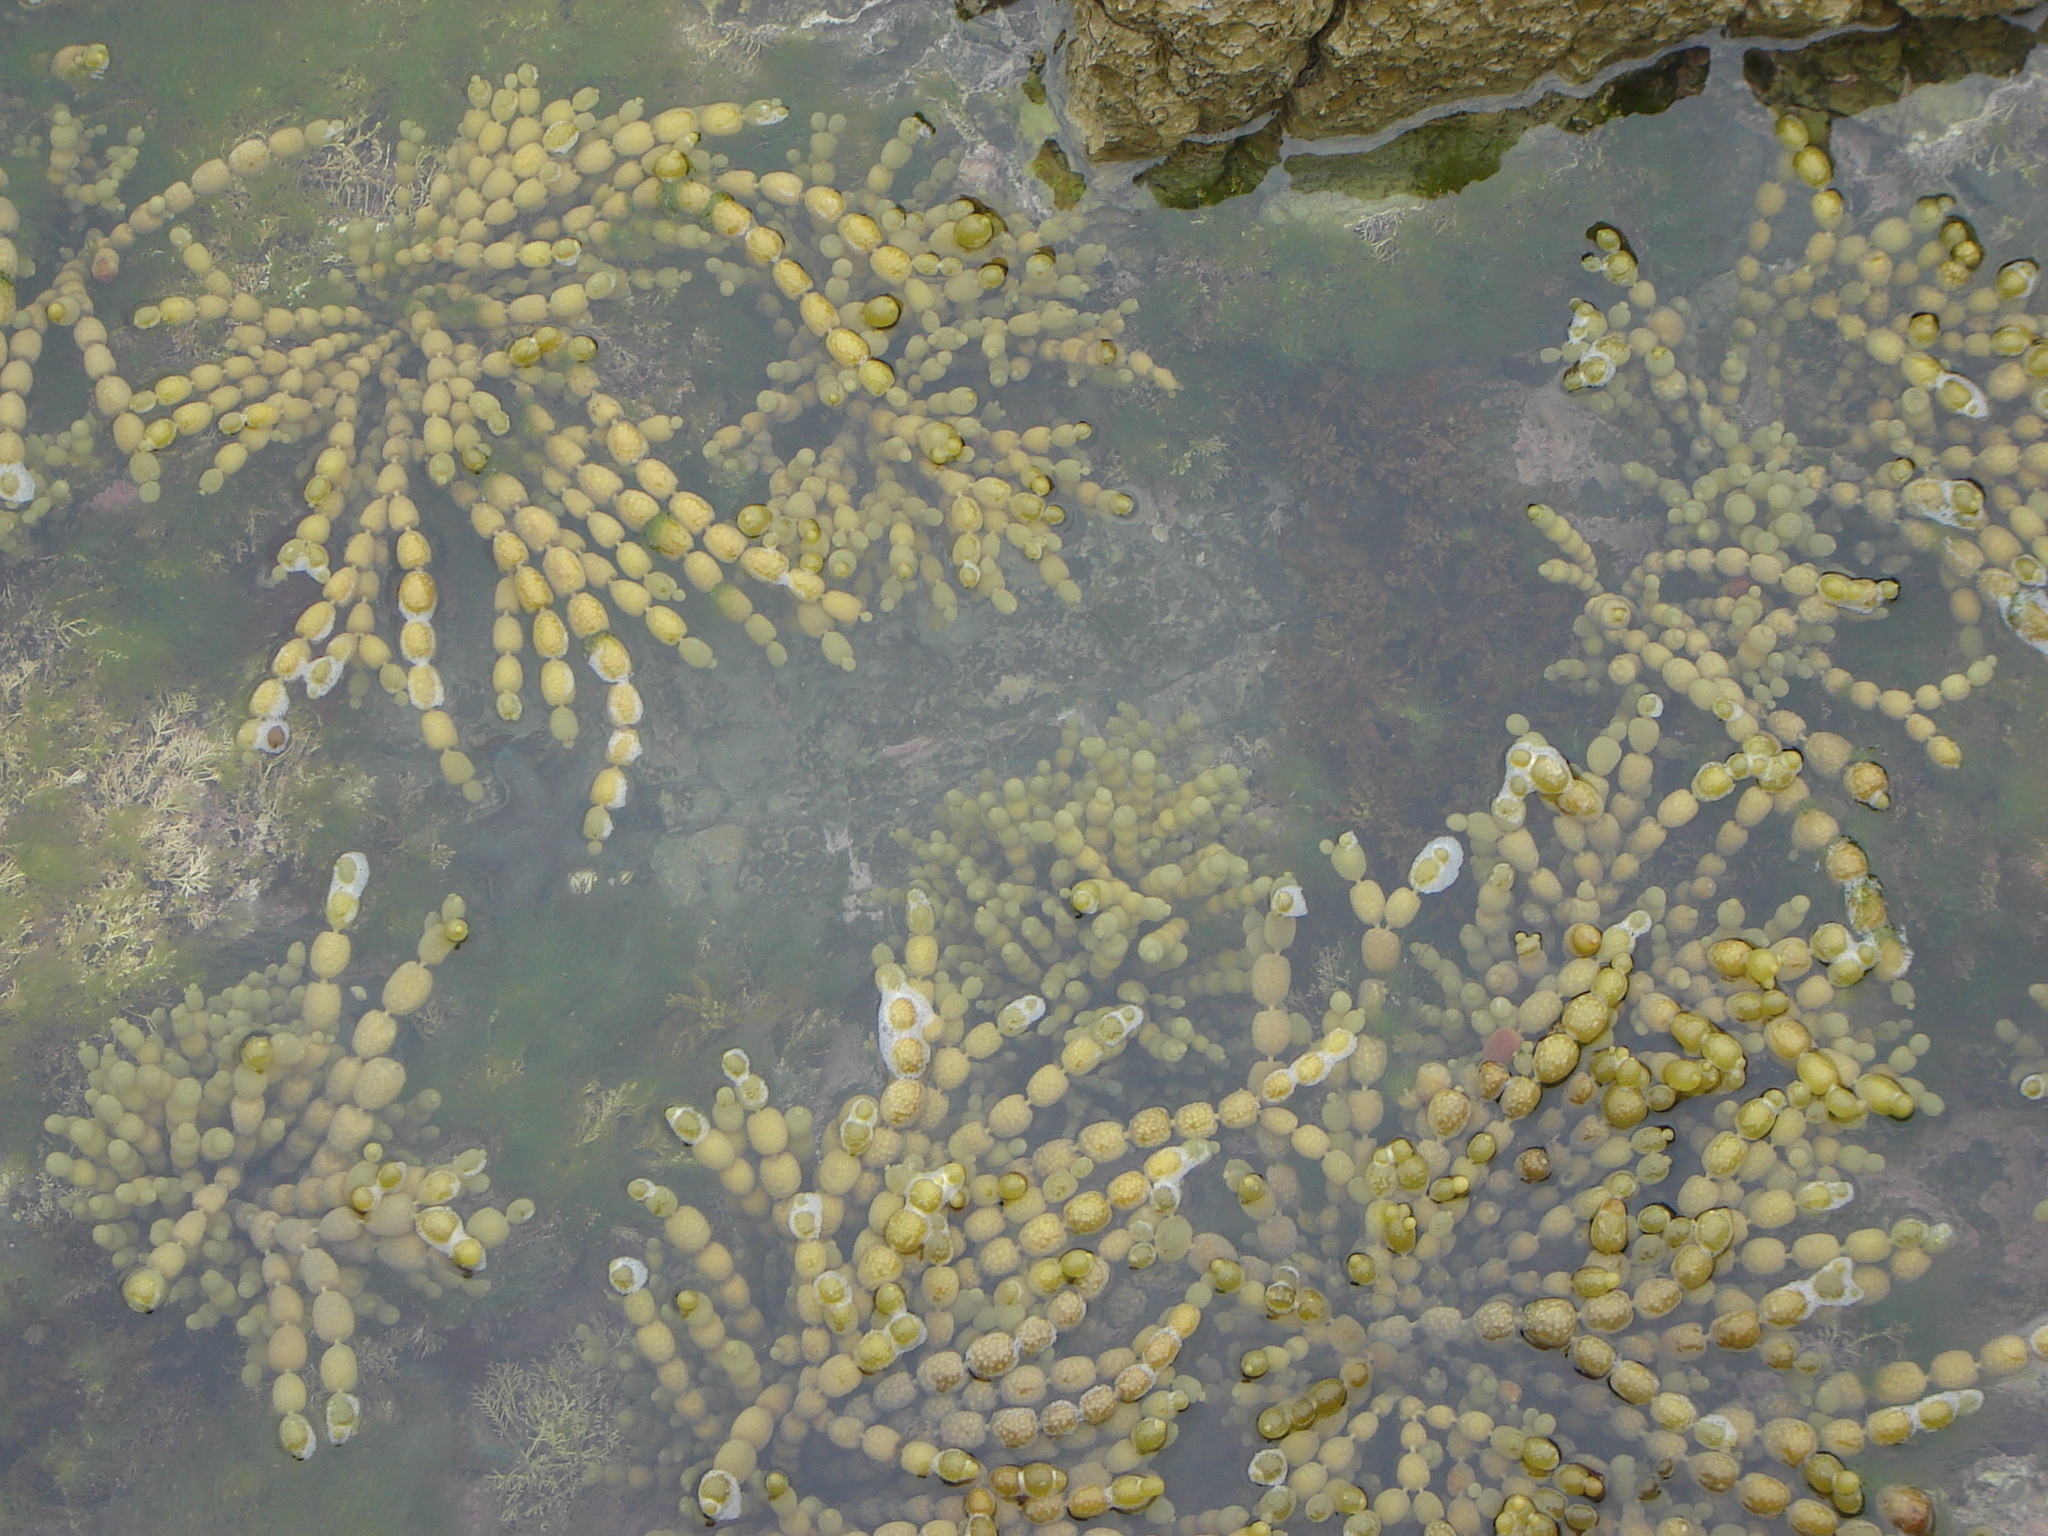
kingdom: Chromista
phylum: Ochrophyta
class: Phaeophyceae
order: Fucales
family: Hormosiraceae
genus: Hormosira
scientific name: Hormosira banksii
